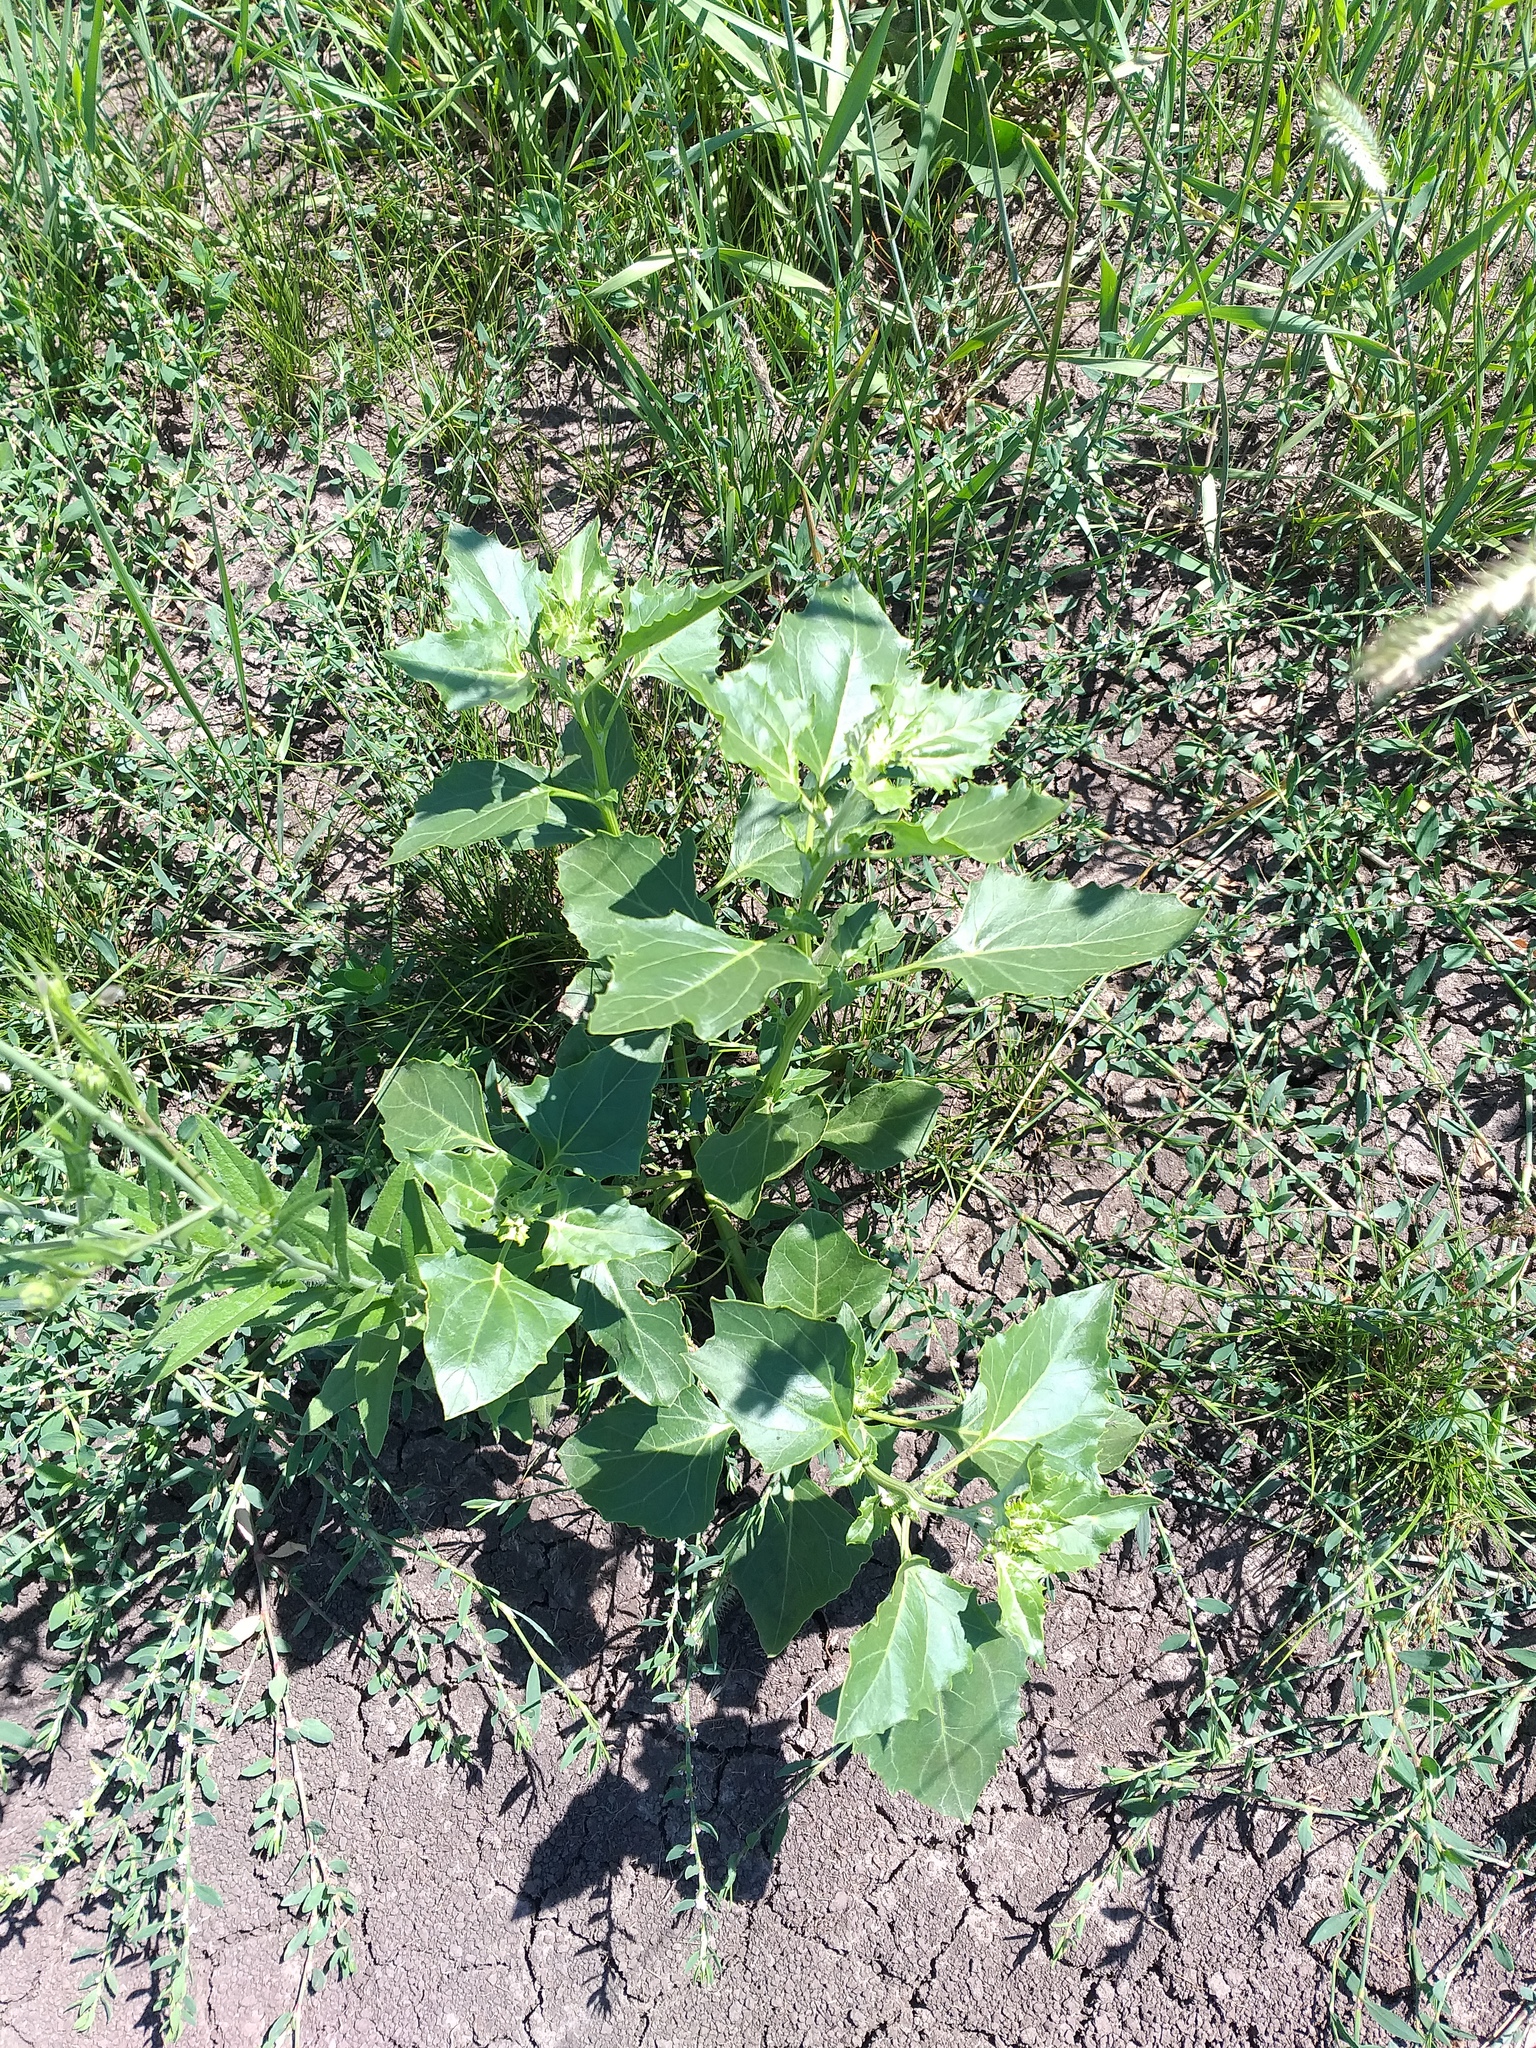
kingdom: Plantae
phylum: Tracheophyta
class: Magnoliopsida
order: Caryophyllales
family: Amaranthaceae
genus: Oxybasis
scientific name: Oxybasis urbica
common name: City goosefoot
